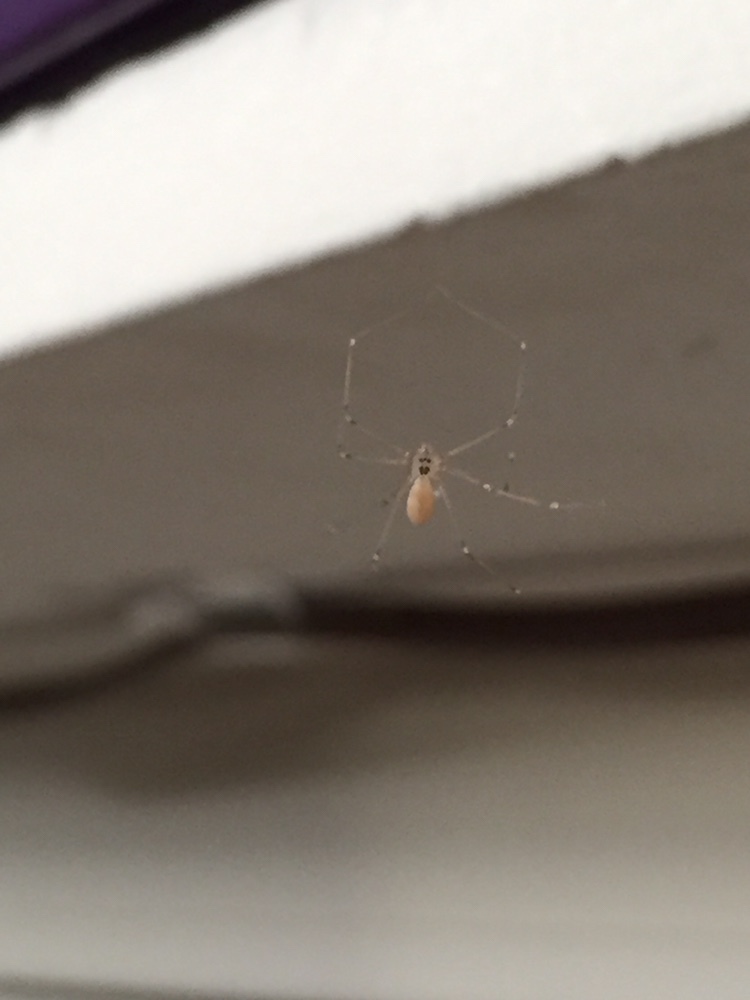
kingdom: Animalia
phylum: Arthropoda
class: Arachnida
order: Araneae
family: Pholcidae
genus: Pholcus
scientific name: Pholcus phalangioides
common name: Longbodied cellar spider
